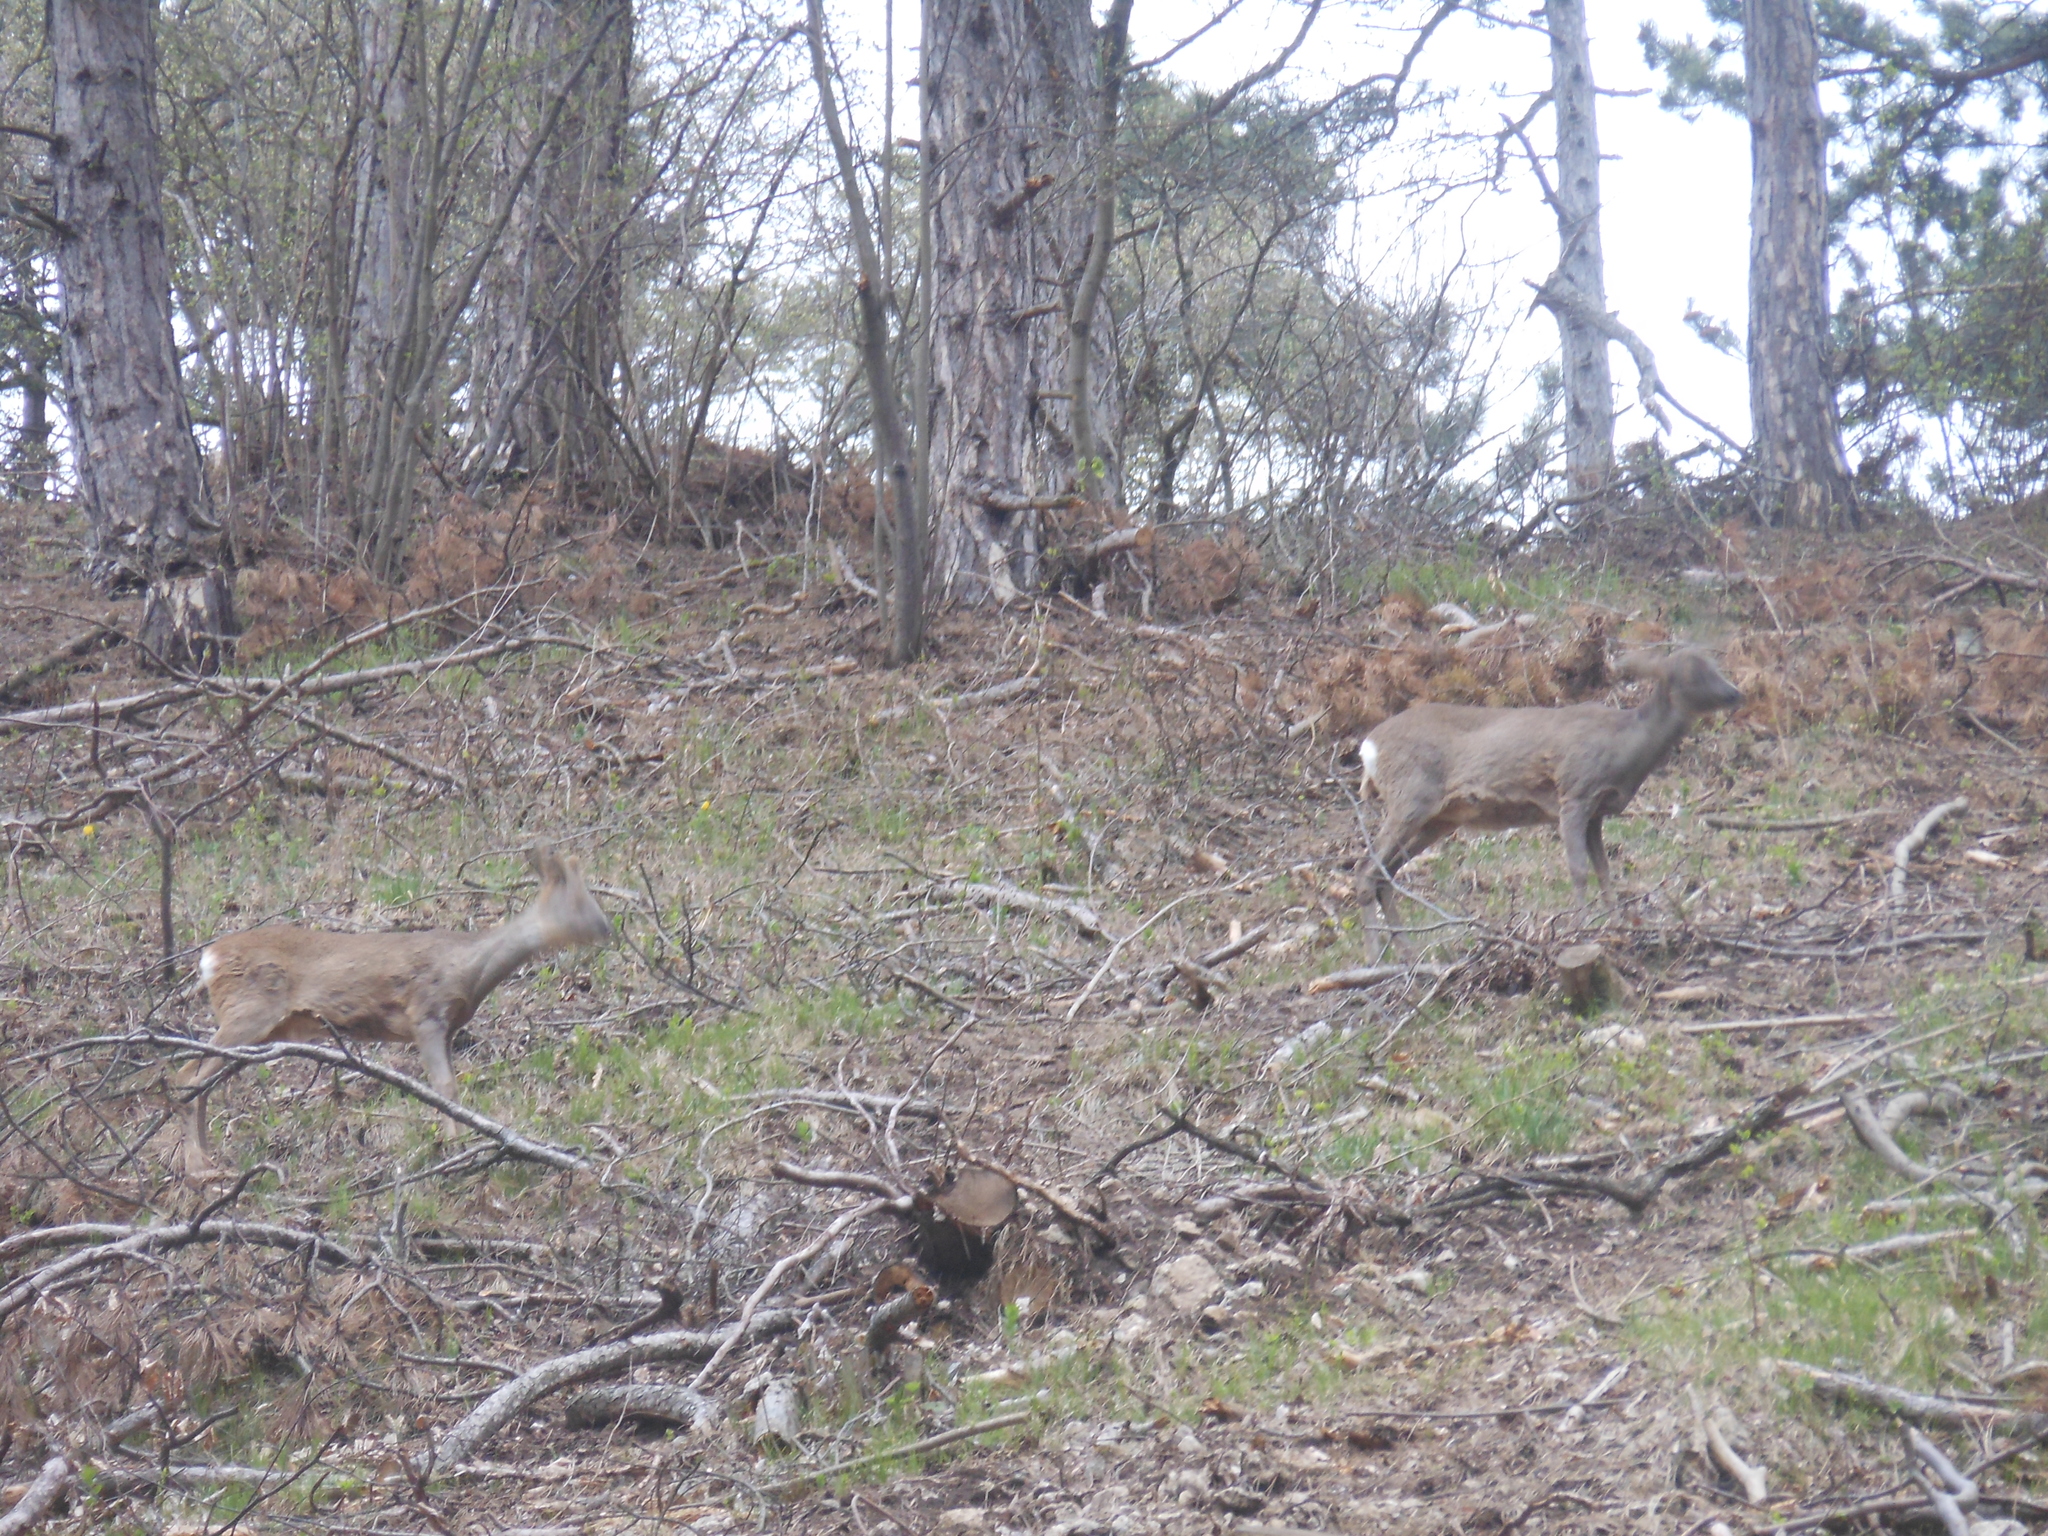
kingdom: Animalia
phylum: Chordata
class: Mammalia
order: Artiodactyla
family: Cervidae
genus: Capreolus
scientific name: Capreolus capreolus
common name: Western roe deer
